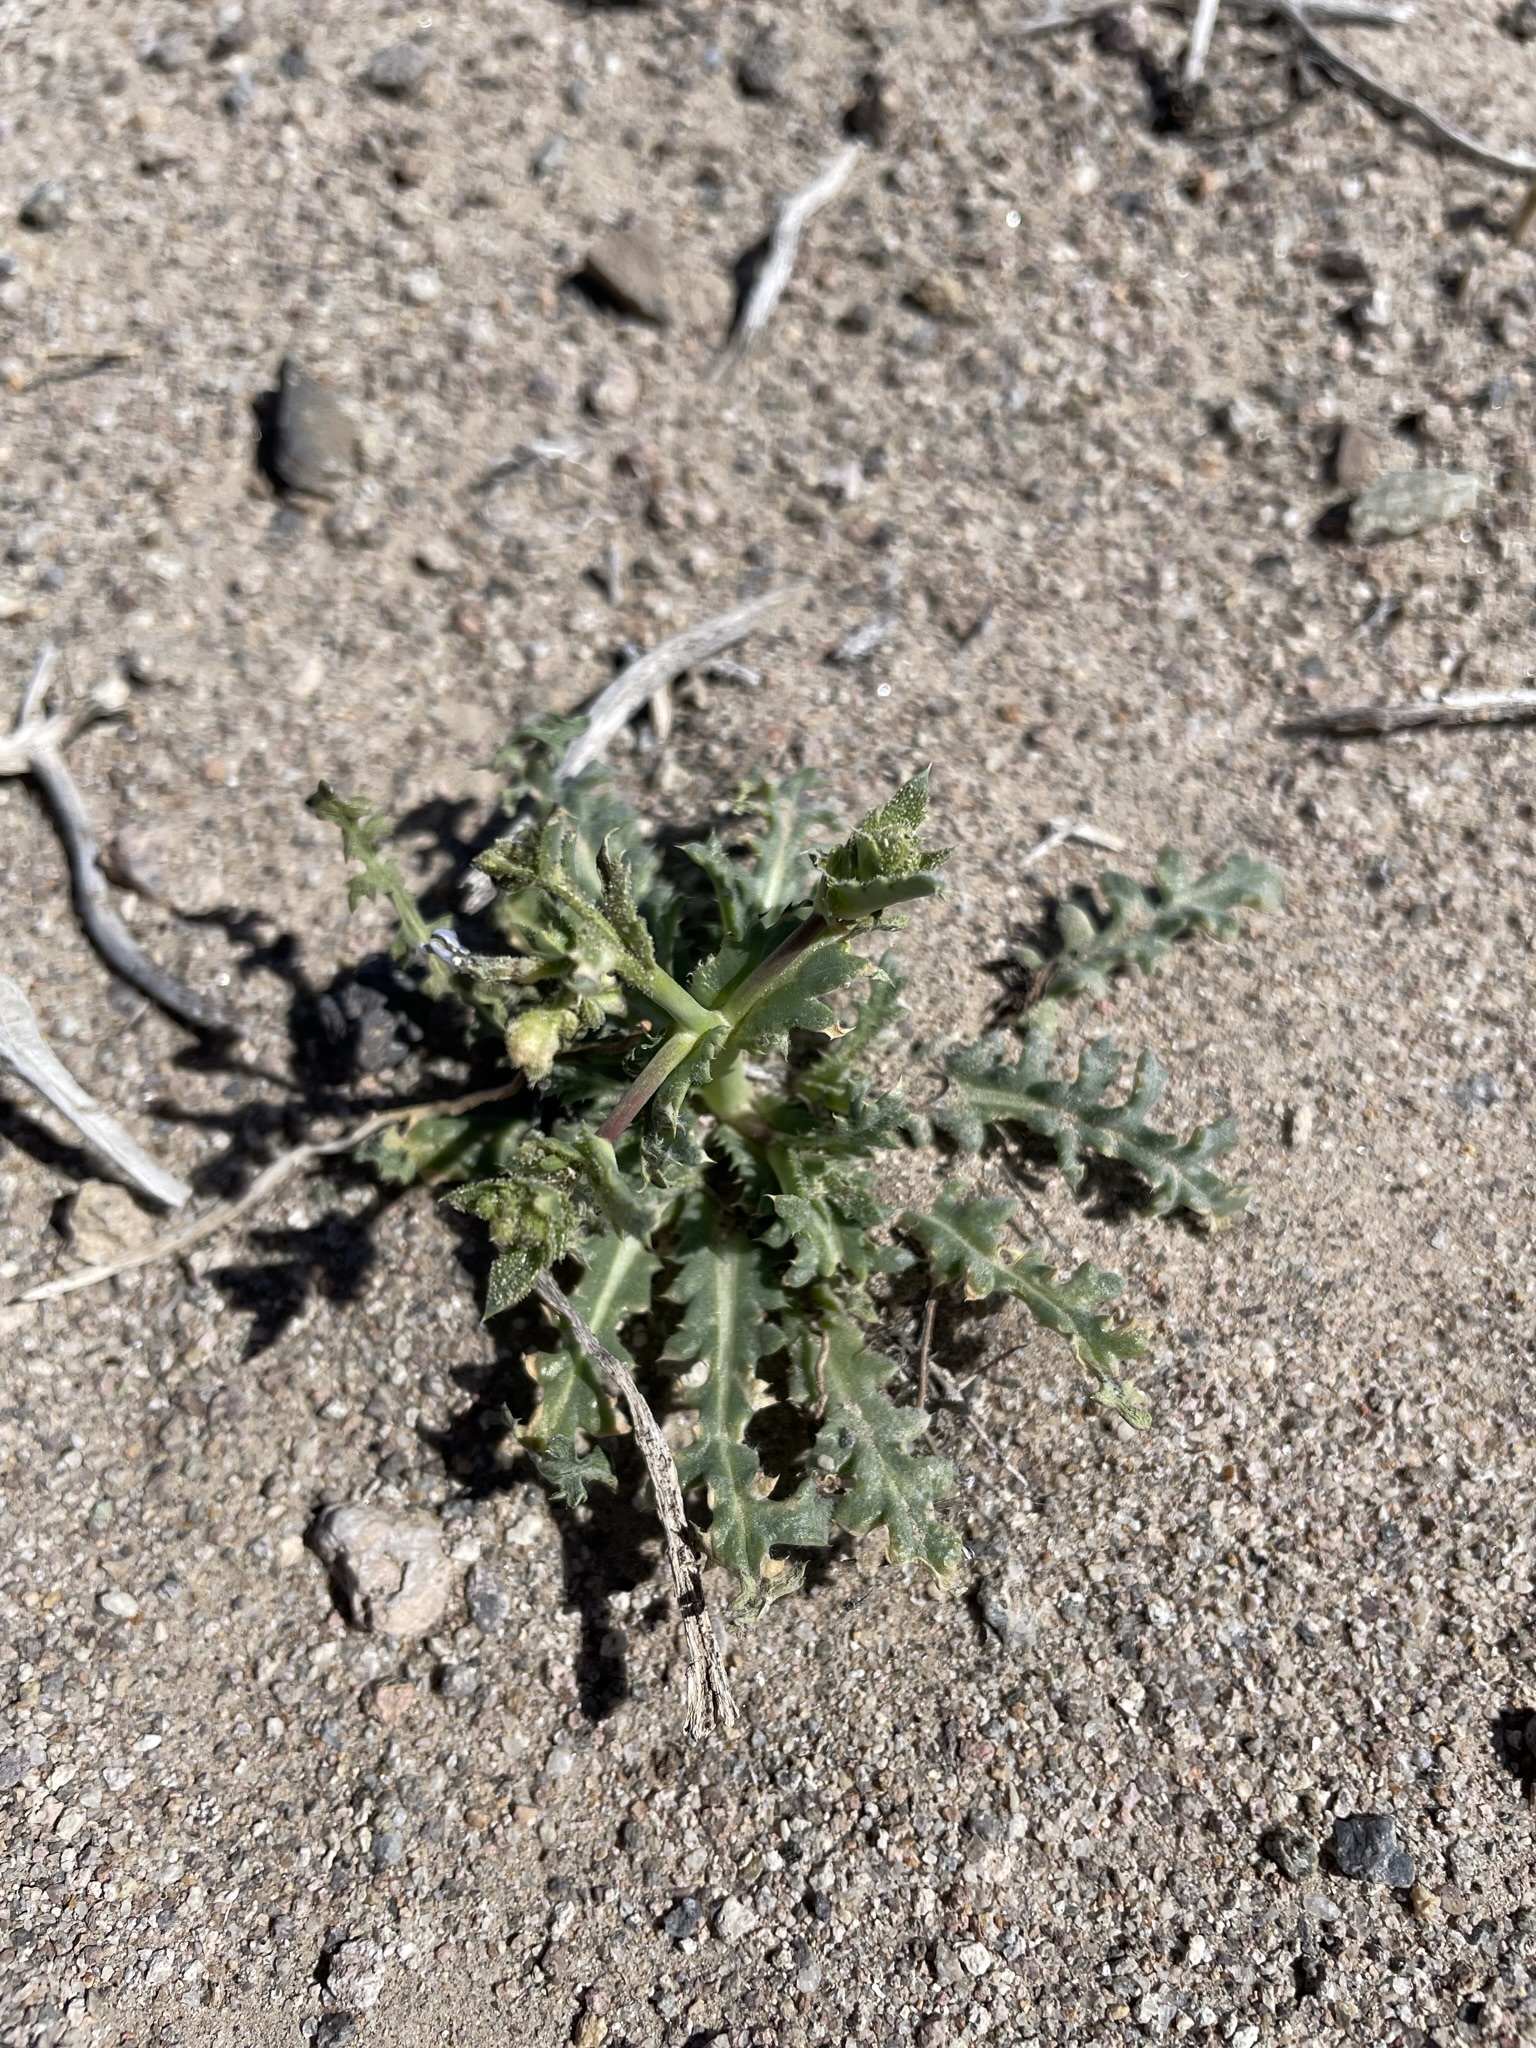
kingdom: Plantae
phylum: Tracheophyta
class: Magnoliopsida
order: Ericales
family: Polemoniaceae
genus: Gilia
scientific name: Gilia sinuata
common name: Rosy gilia
